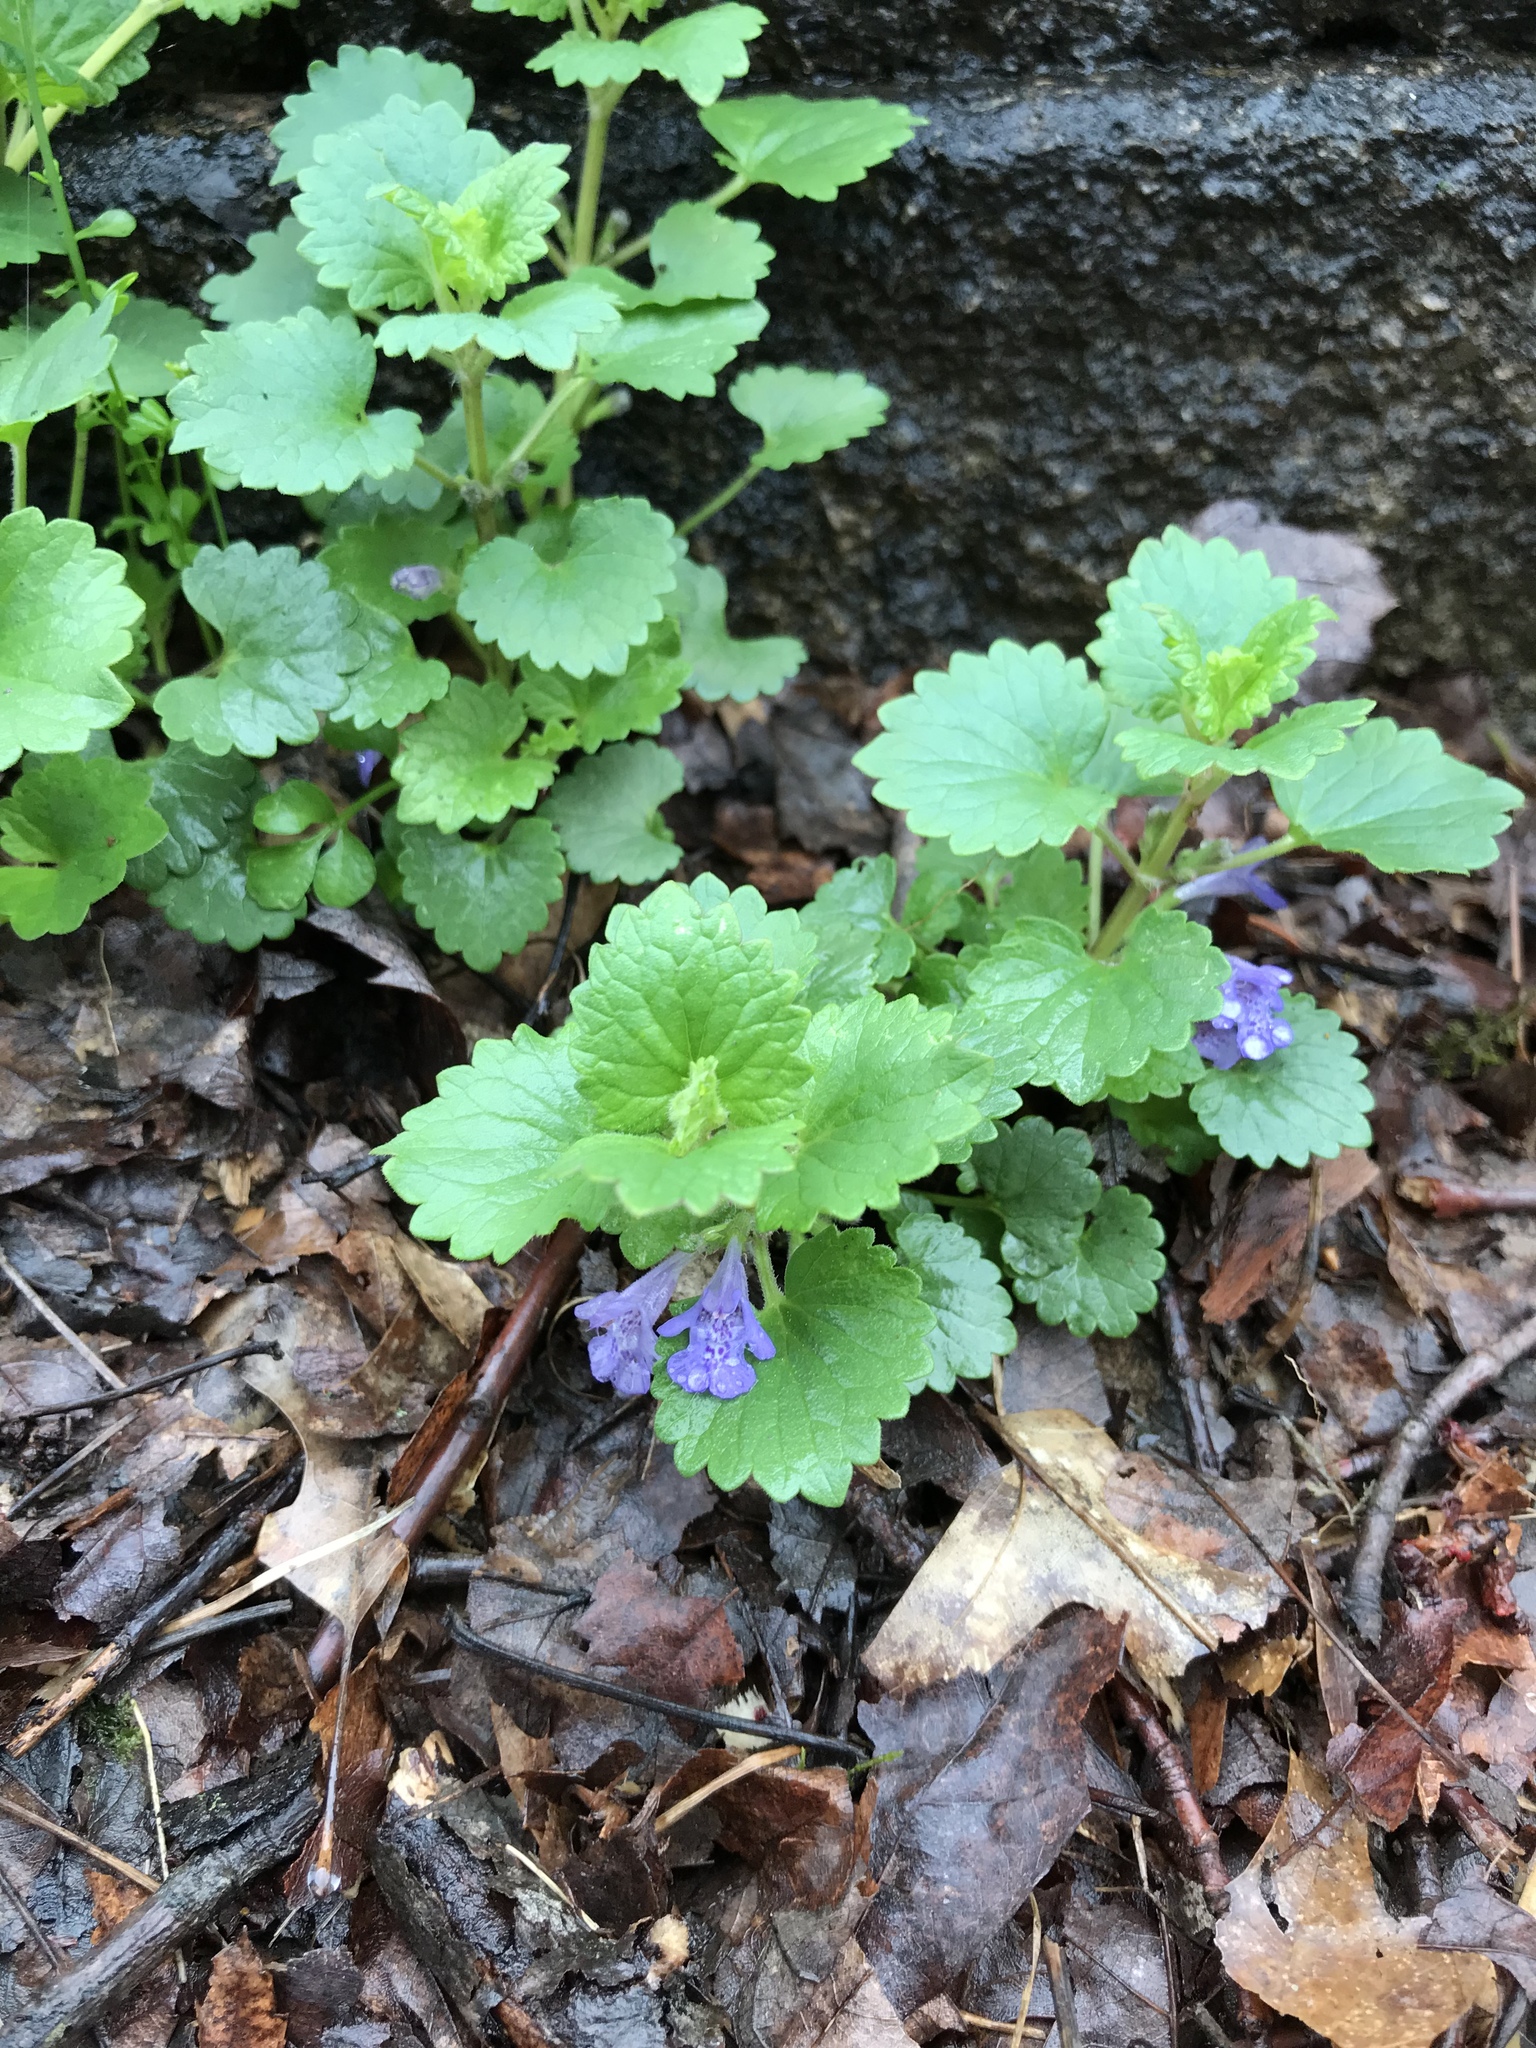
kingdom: Plantae
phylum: Tracheophyta
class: Magnoliopsida
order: Lamiales
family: Lamiaceae
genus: Glechoma
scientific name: Glechoma hederacea
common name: Ground ivy
